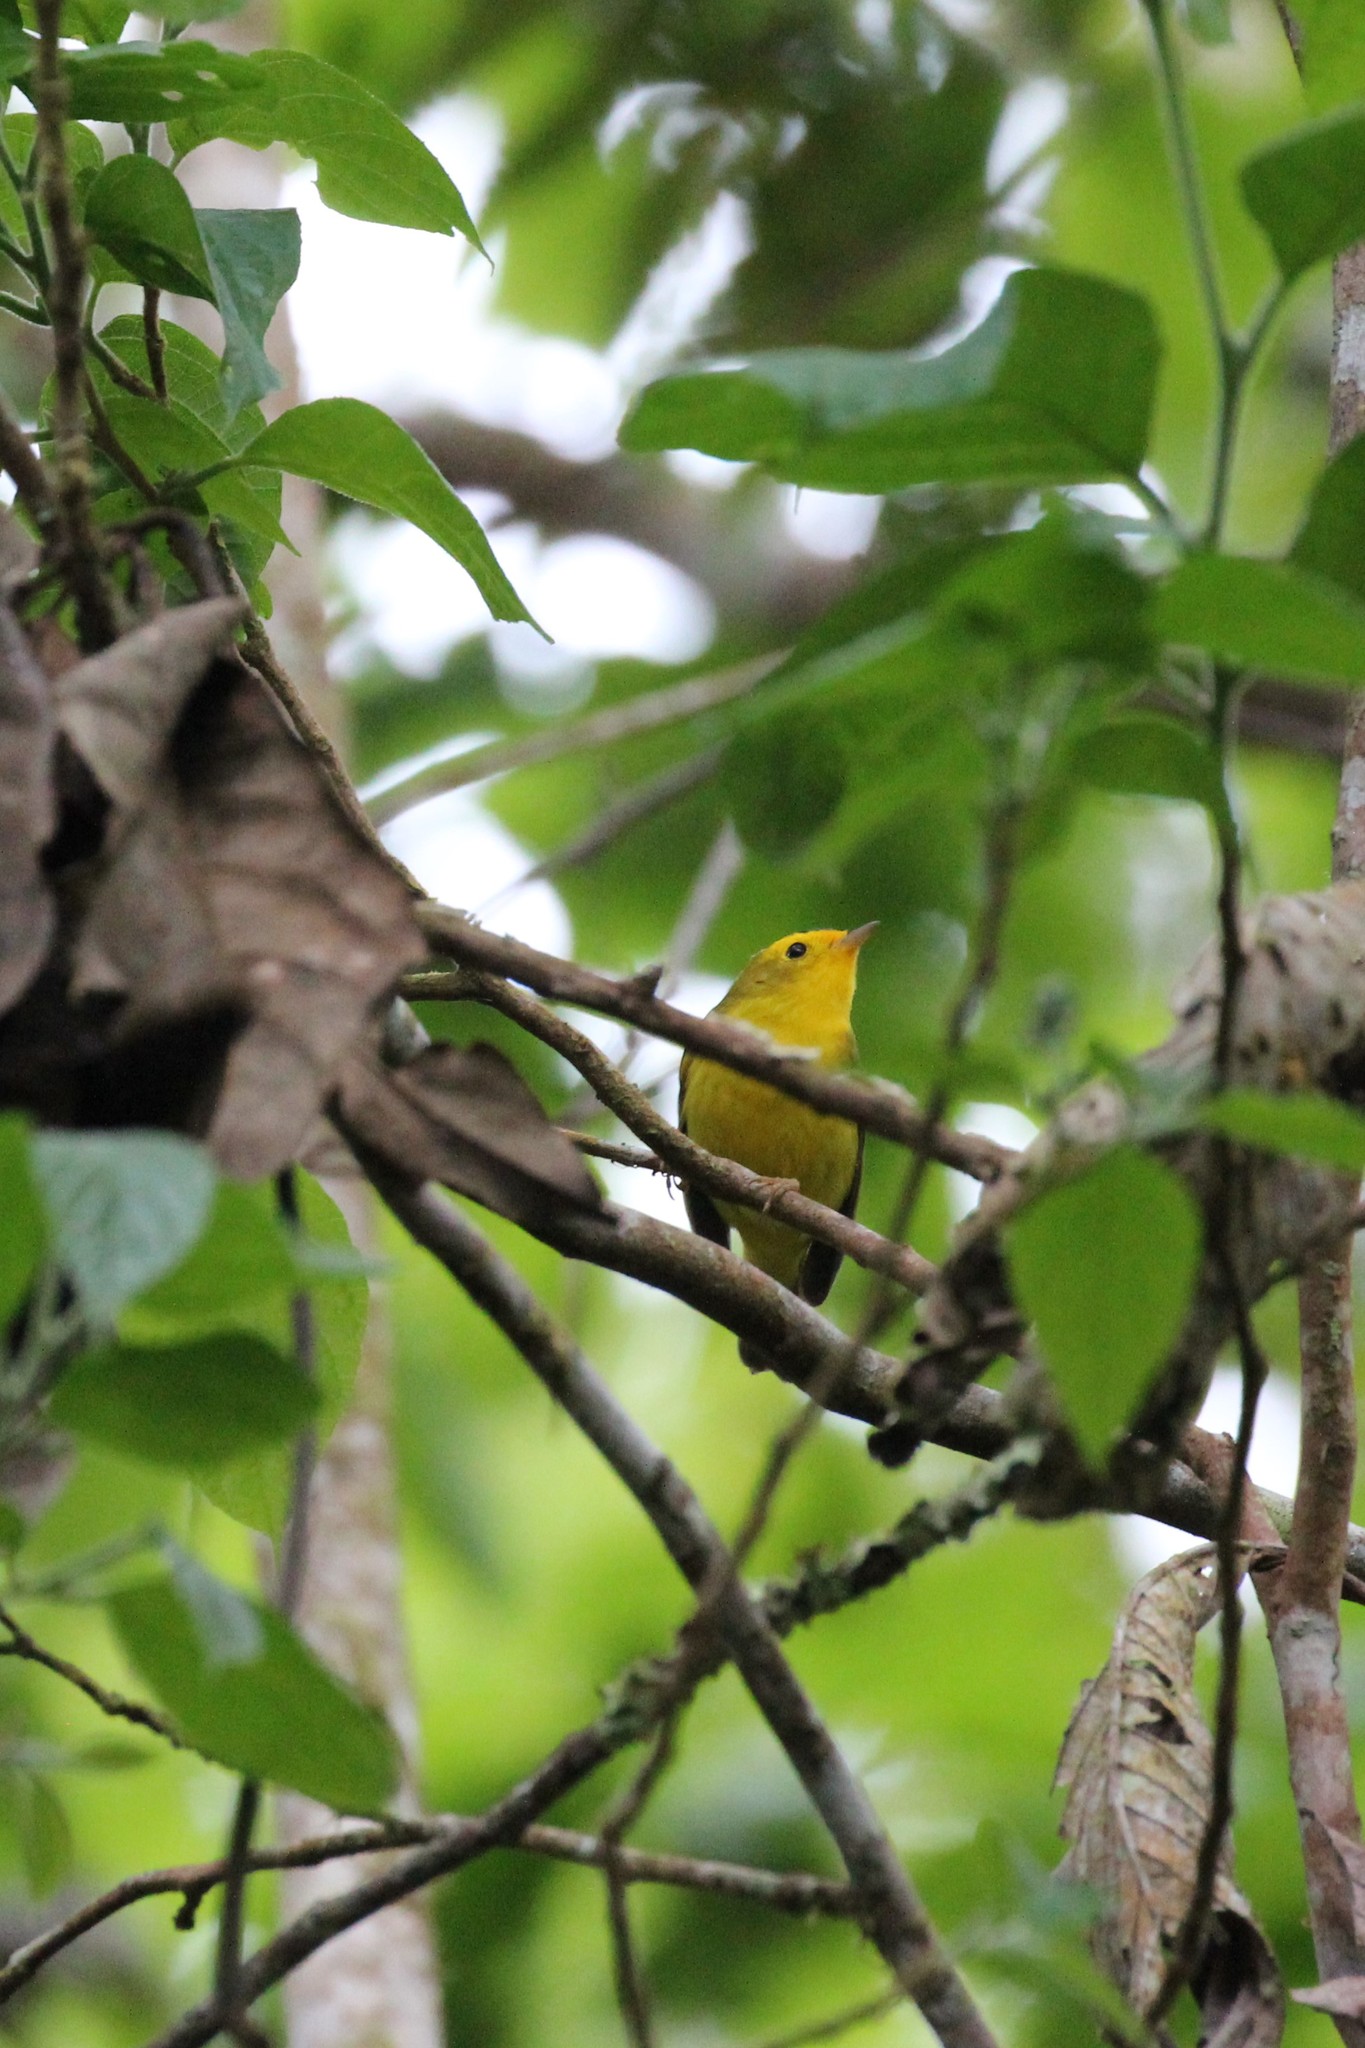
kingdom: Animalia
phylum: Chordata
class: Aves
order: Passeriformes
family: Parulidae
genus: Cardellina
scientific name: Cardellina pusilla
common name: Wilson's warbler
